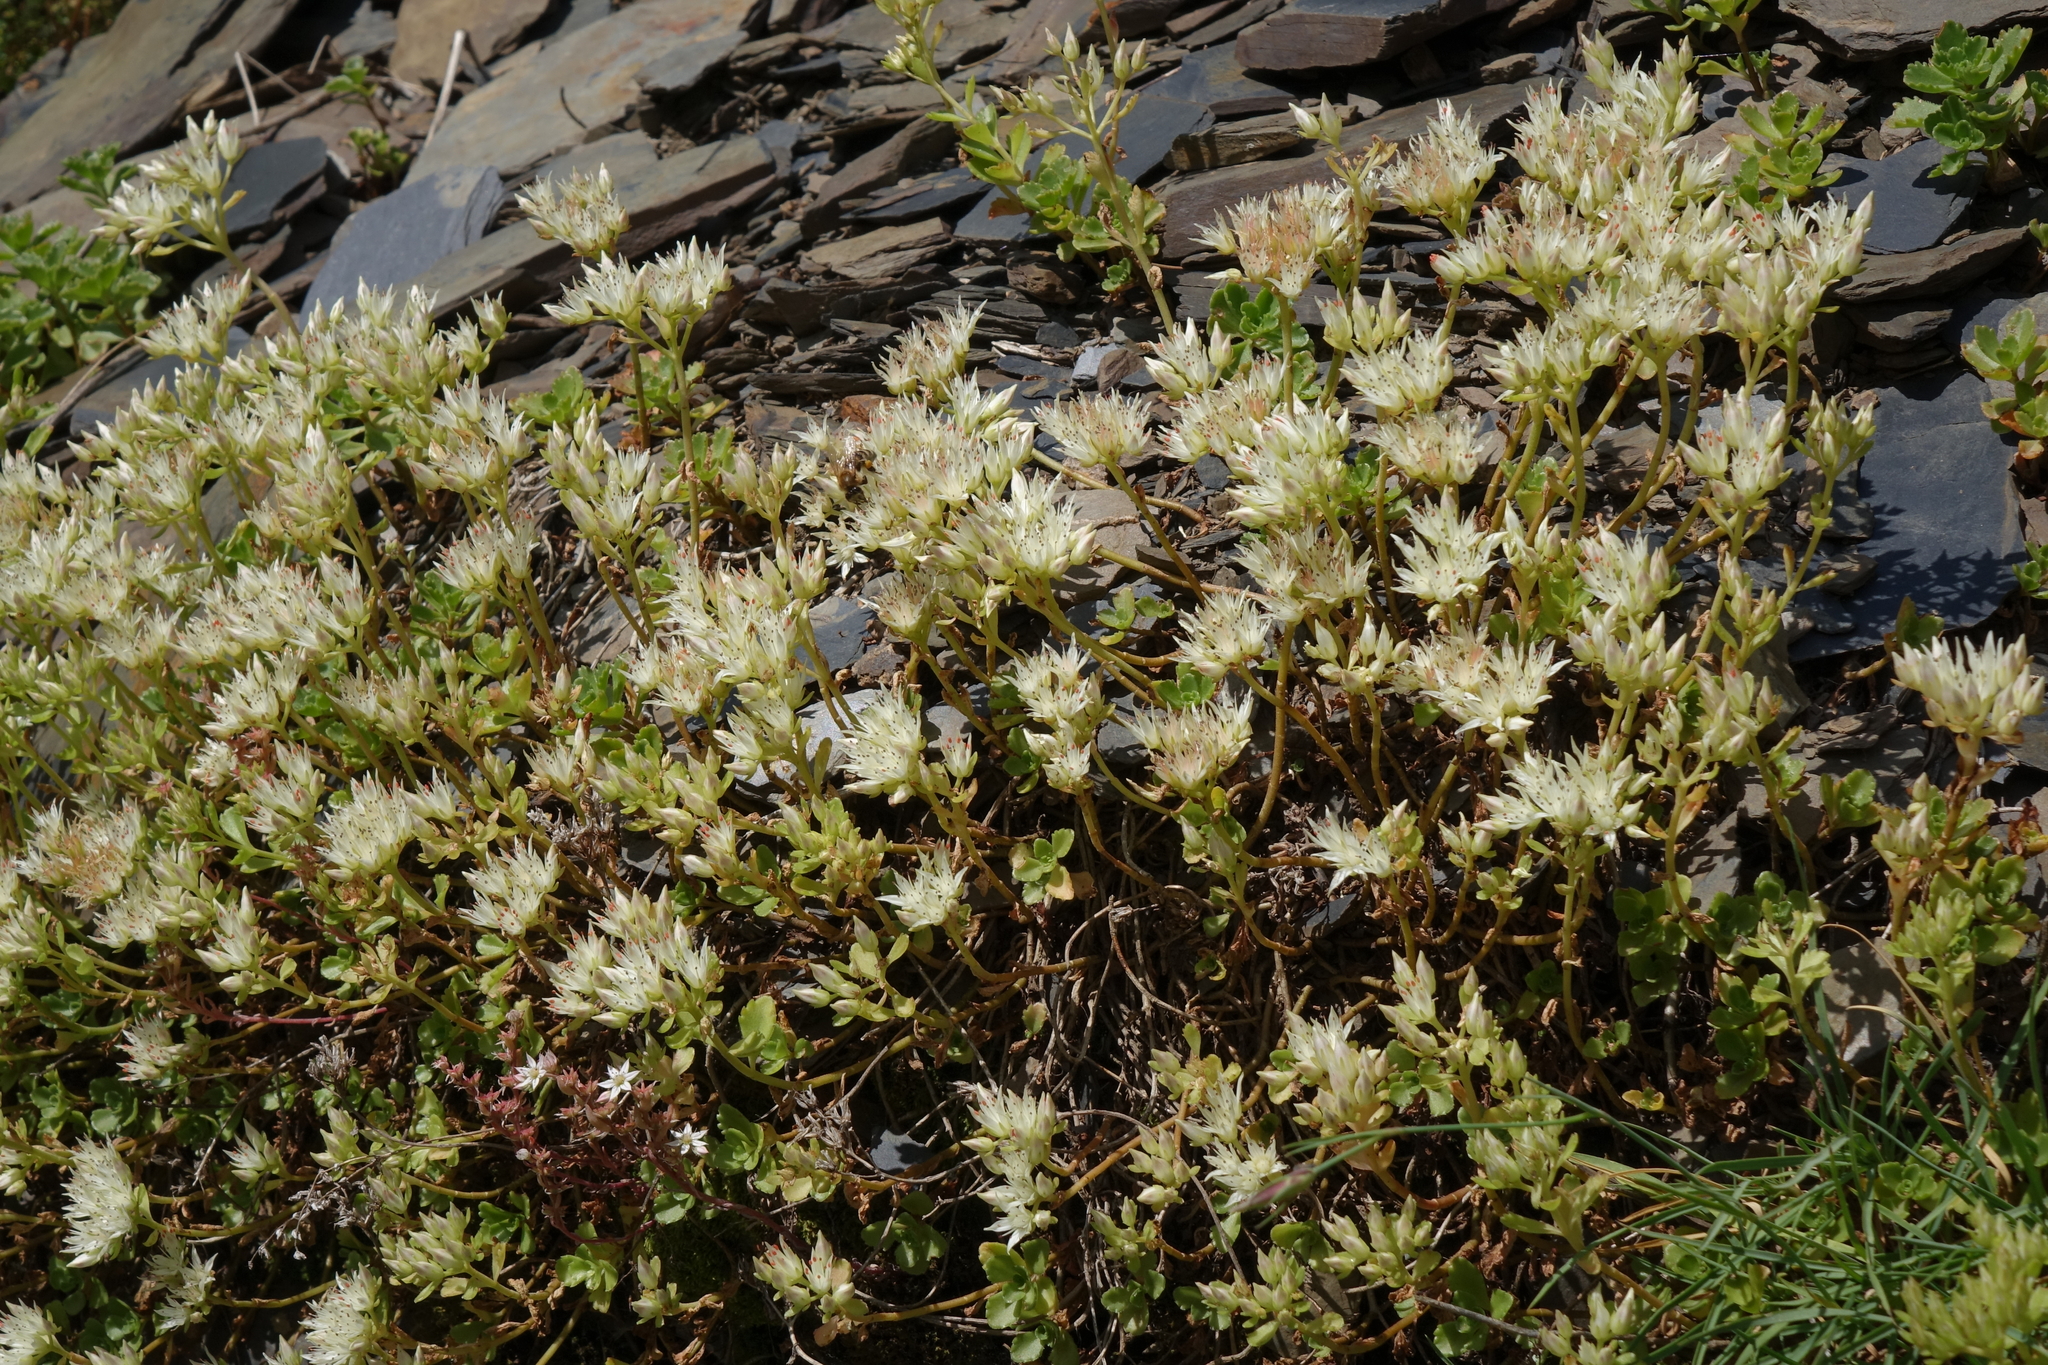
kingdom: Plantae
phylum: Tracheophyta
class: Magnoliopsida
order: Saxifragales
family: Crassulaceae
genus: Phedimus
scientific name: Phedimus spurius
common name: Caucasian stonecrop
